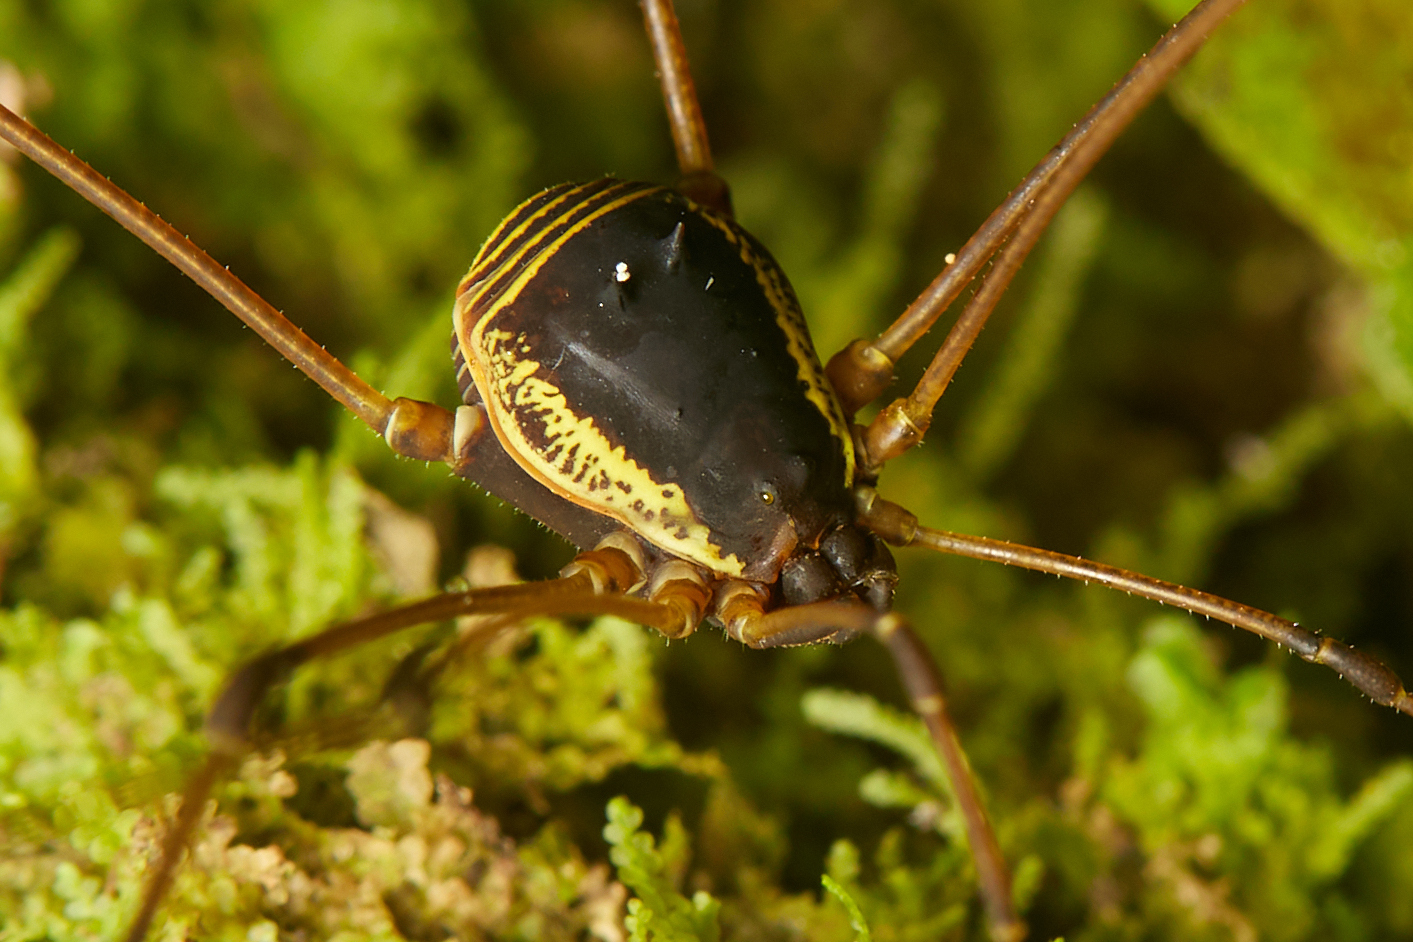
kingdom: Animalia
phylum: Arthropoda
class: Arachnida
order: Opiliones
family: Cosmetidae
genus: Cynorta
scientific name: Cynorta marginalis
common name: Harvestmen
